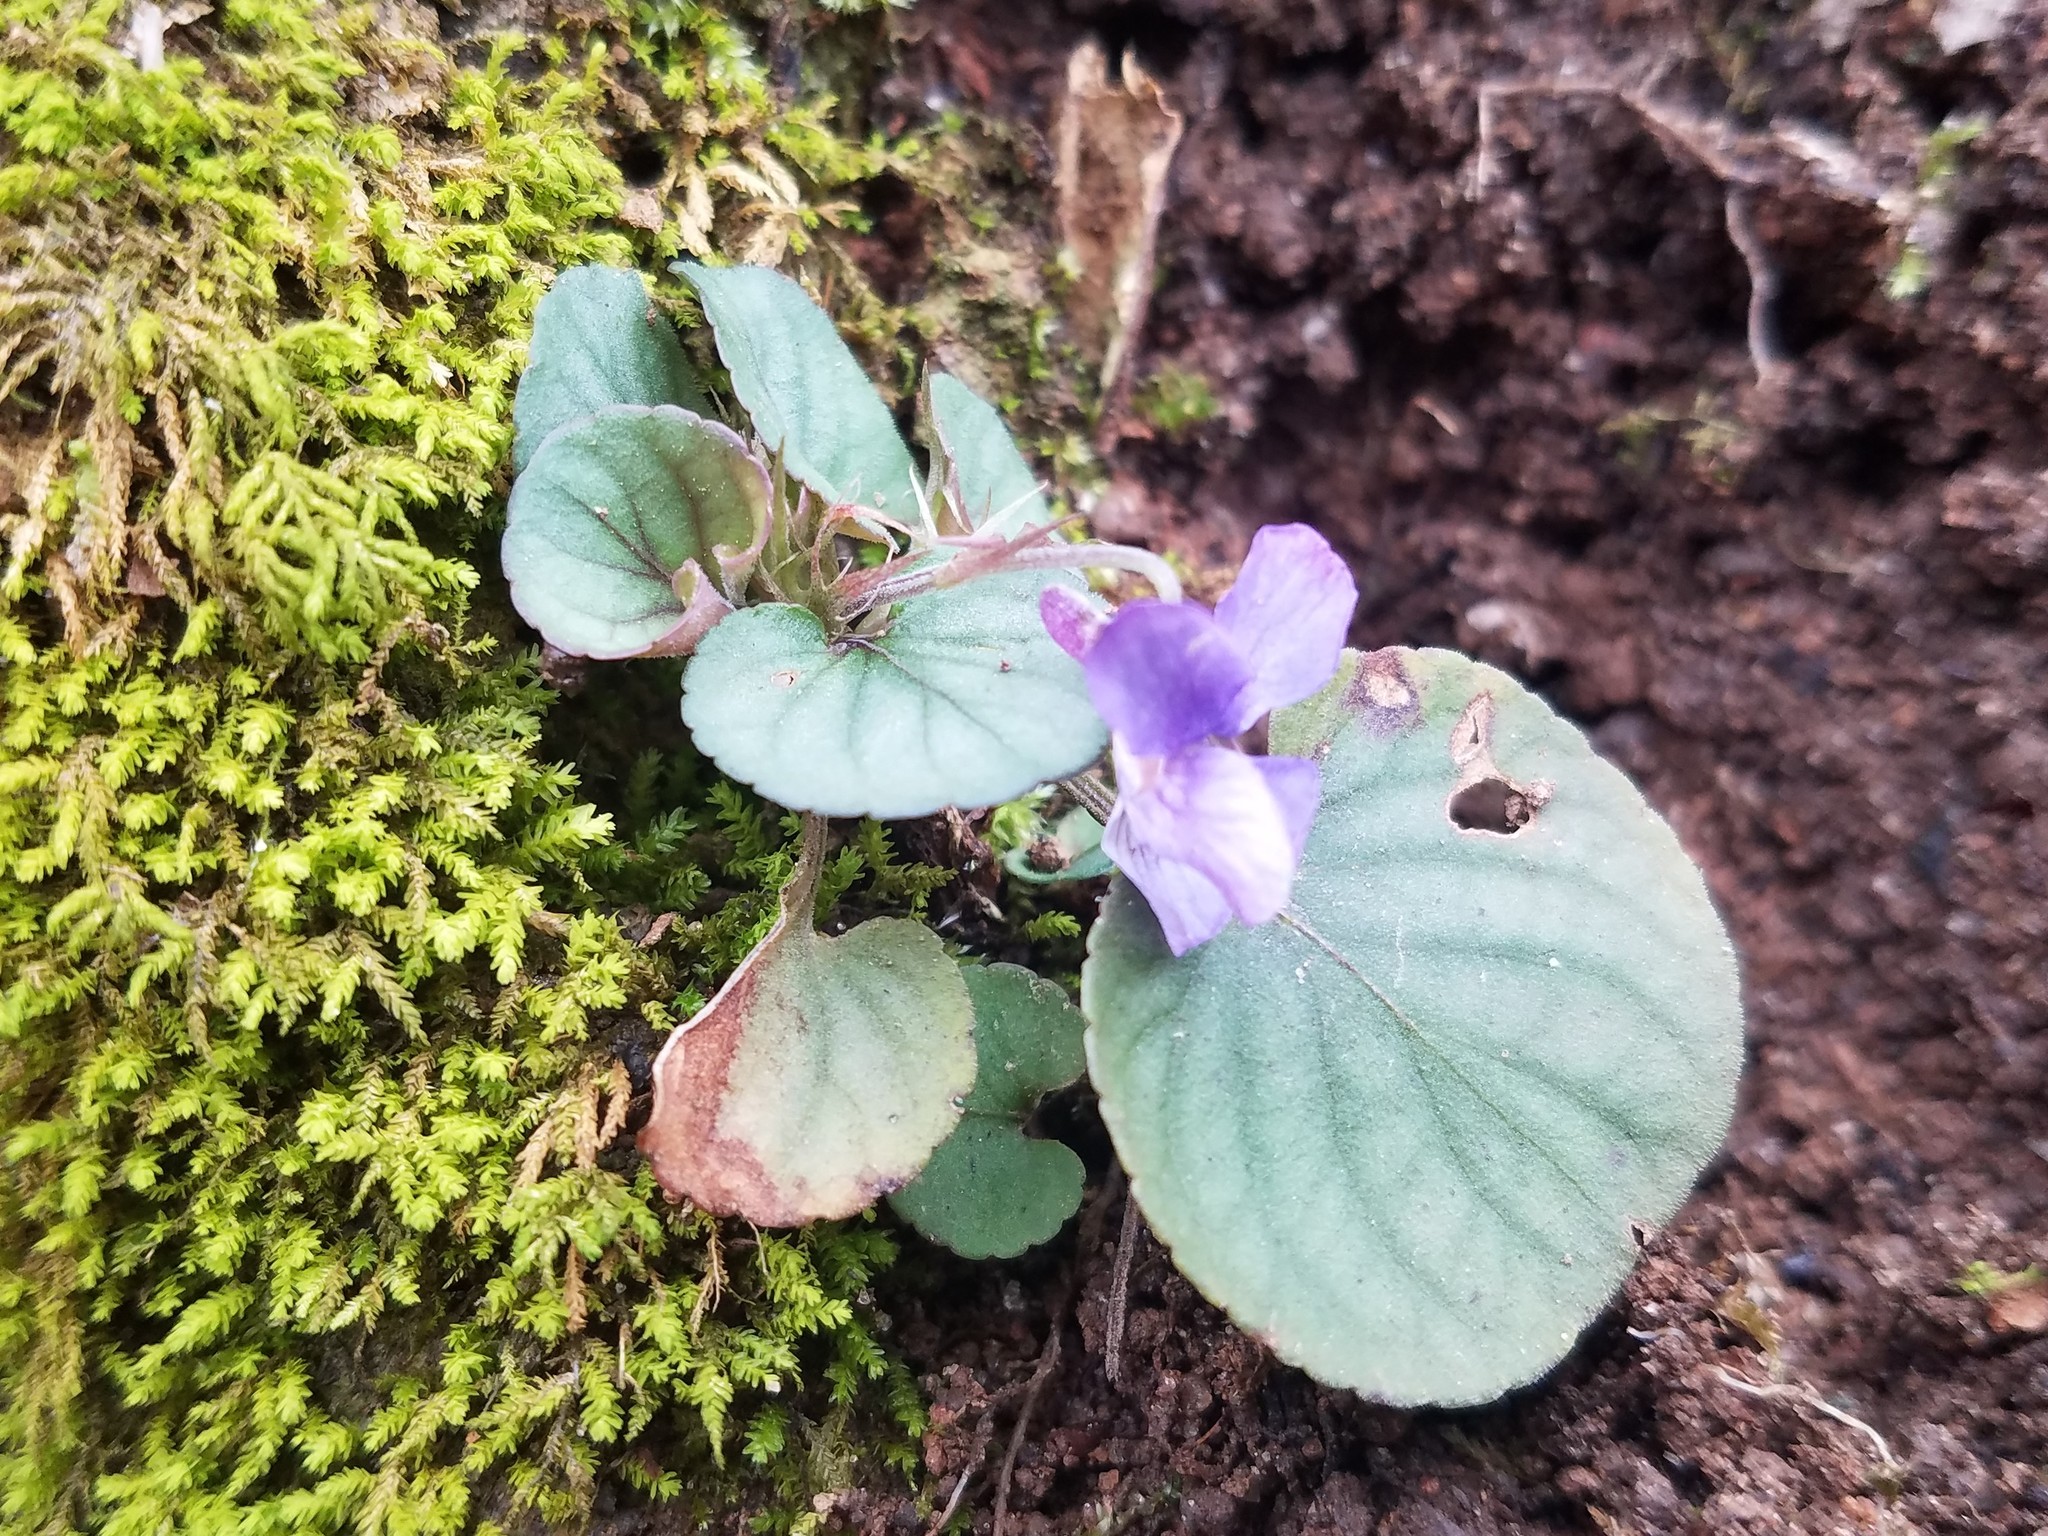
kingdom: Plantae
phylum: Tracheophyta
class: Magnoliopsida
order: Malpighiales
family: Violaceae
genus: Viola
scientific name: Viola walteri
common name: Prostrate southern violet
